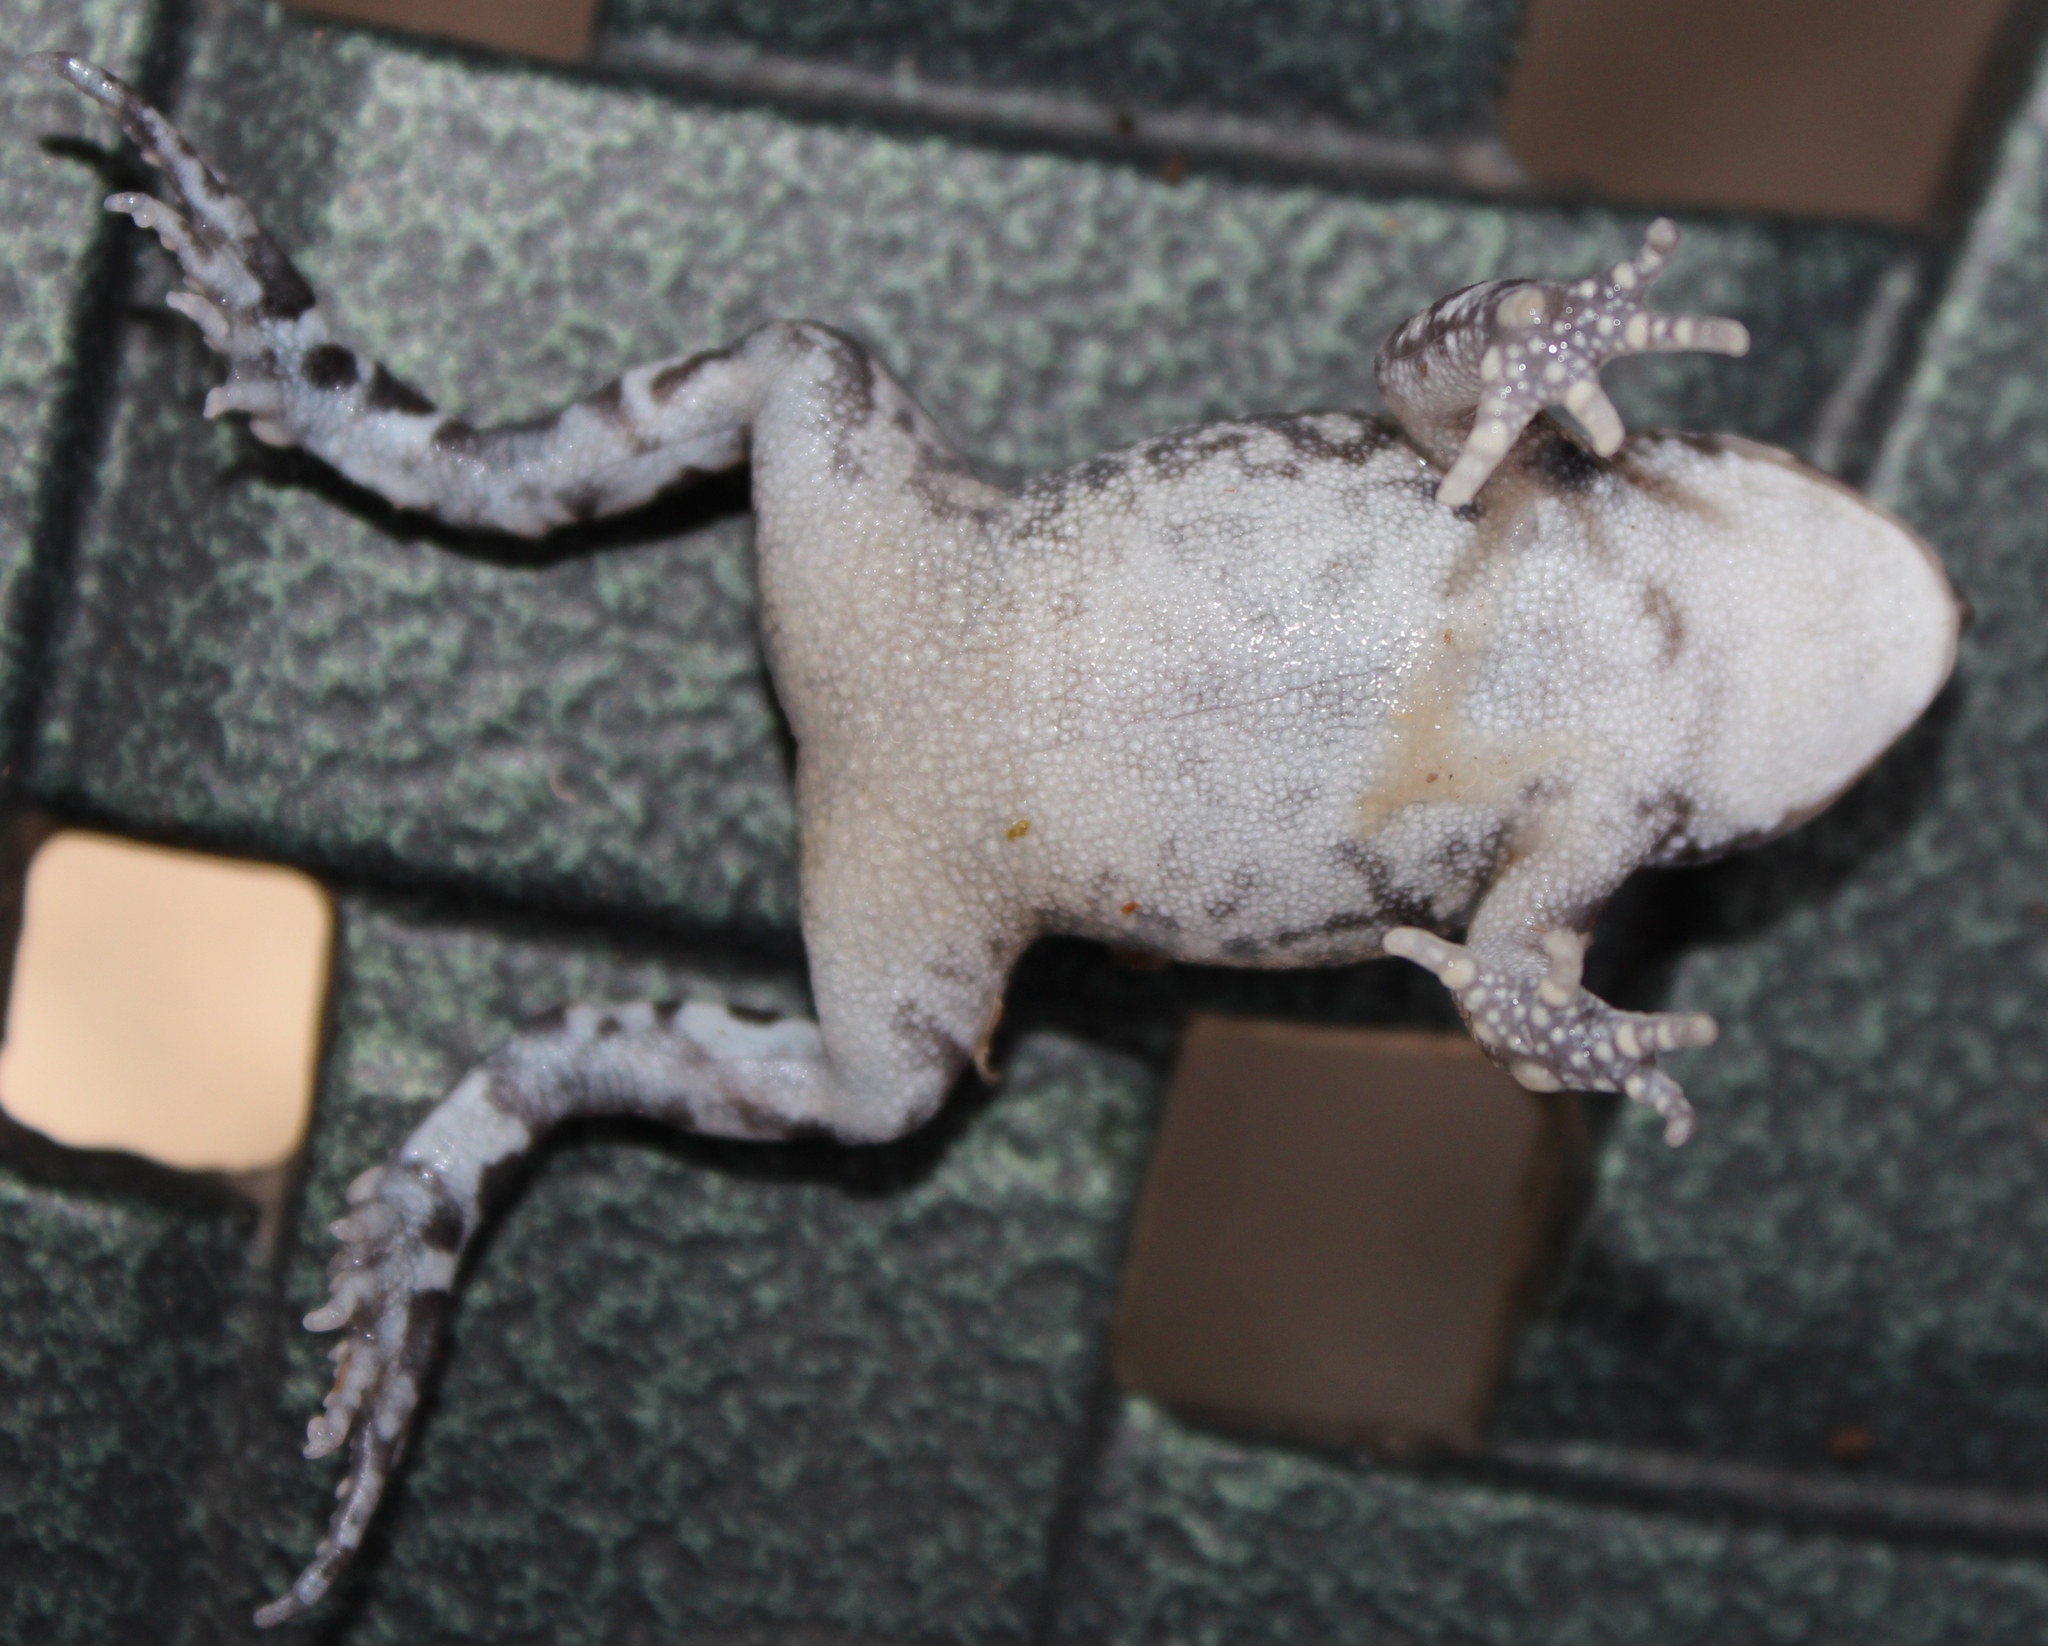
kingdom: Animalia
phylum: Chordata
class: Amphibia
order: Anura
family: Bufonidae
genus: Sclerophrys
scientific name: Sclerophrys pantherina
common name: Panther toad
